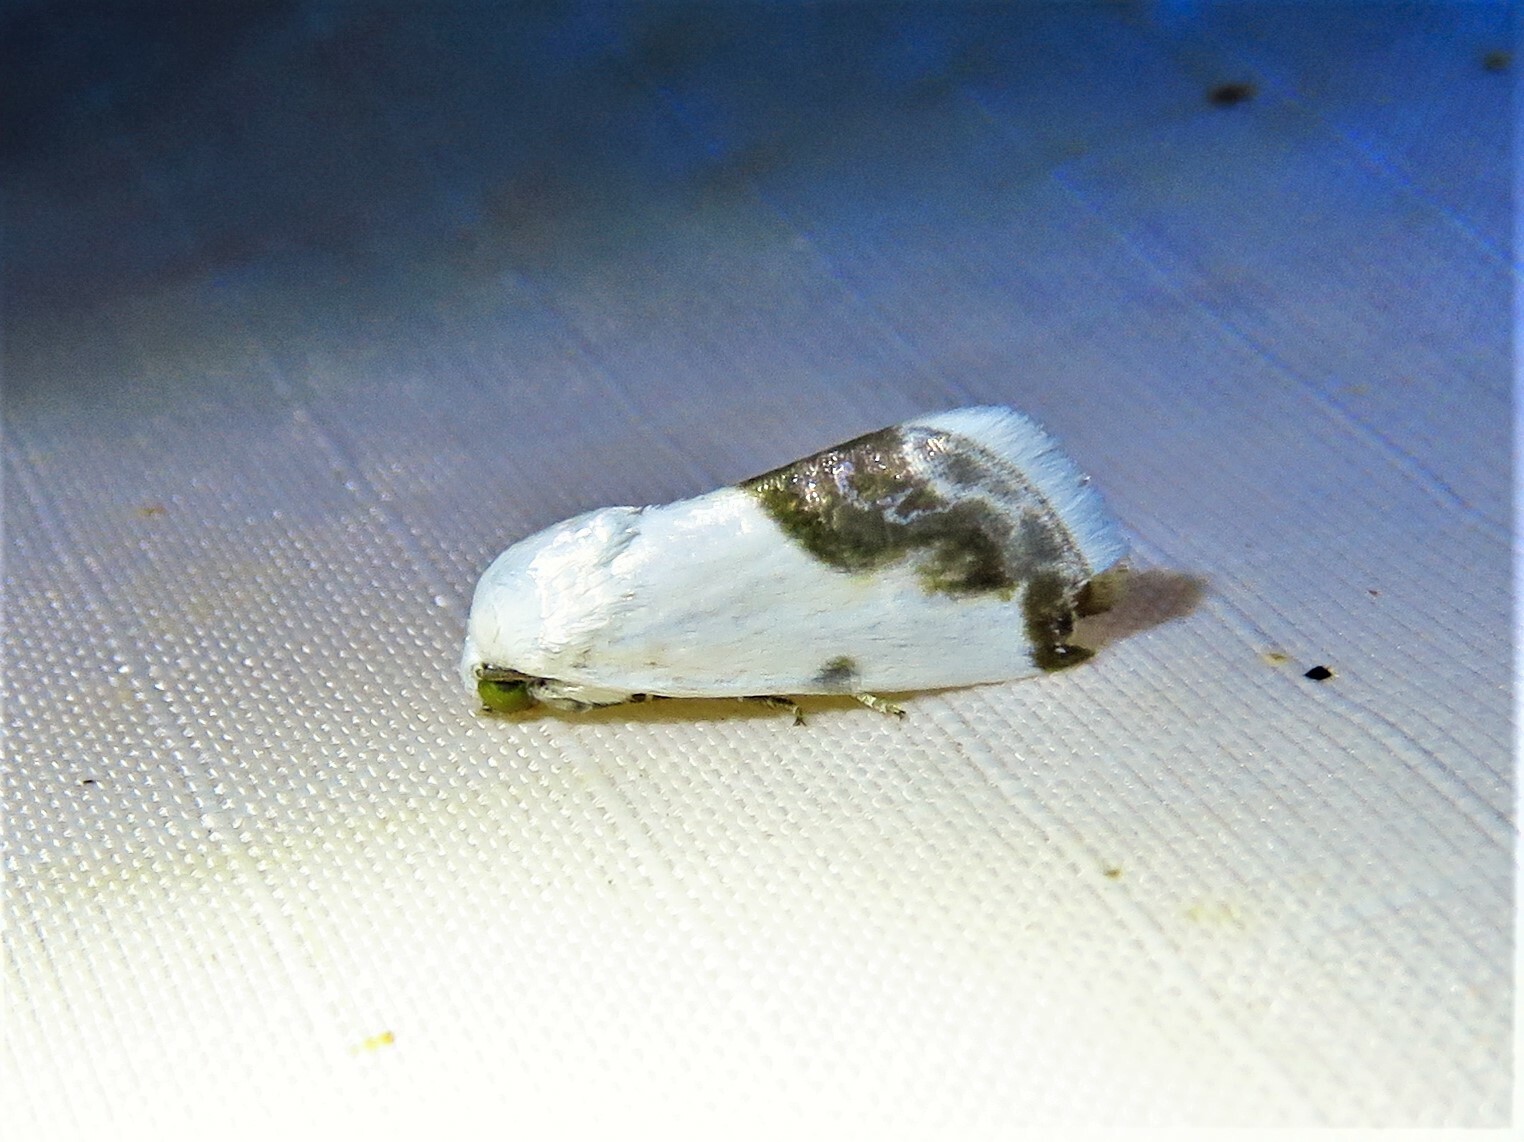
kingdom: Animalia
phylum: Arthropoda
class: Insecta
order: Lepidoptera
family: Noctuidae
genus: Acontia
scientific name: Acontia cretata
